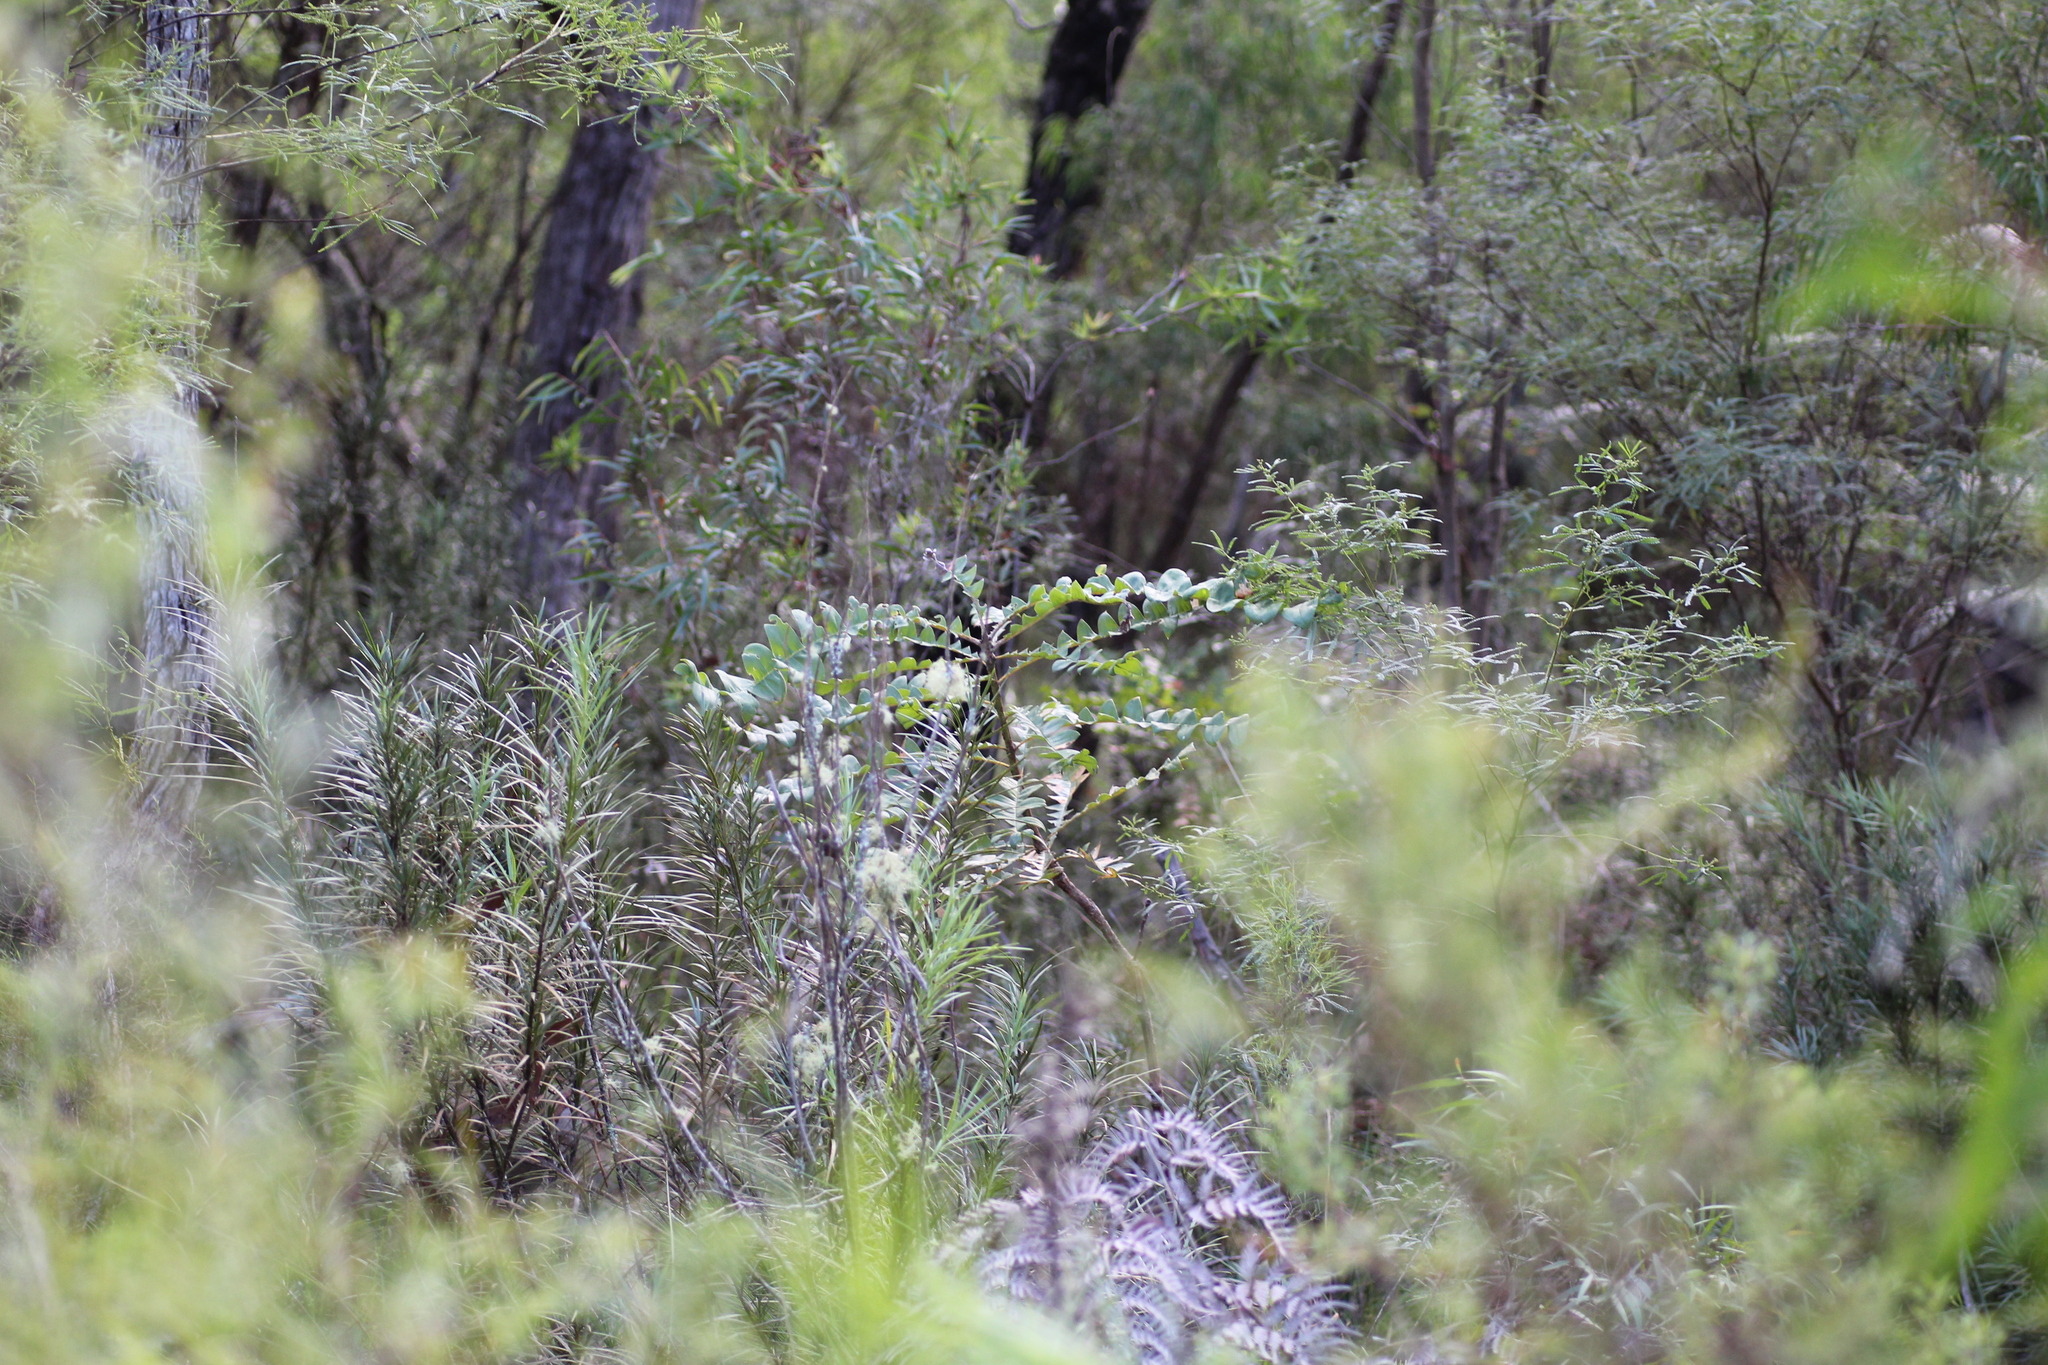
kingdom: Plantae
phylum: Tracheophyta
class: Magnoliopsida
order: Proteales
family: Proteaceae
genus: Banksia
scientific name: Banksia grandis
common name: Giant banksia
